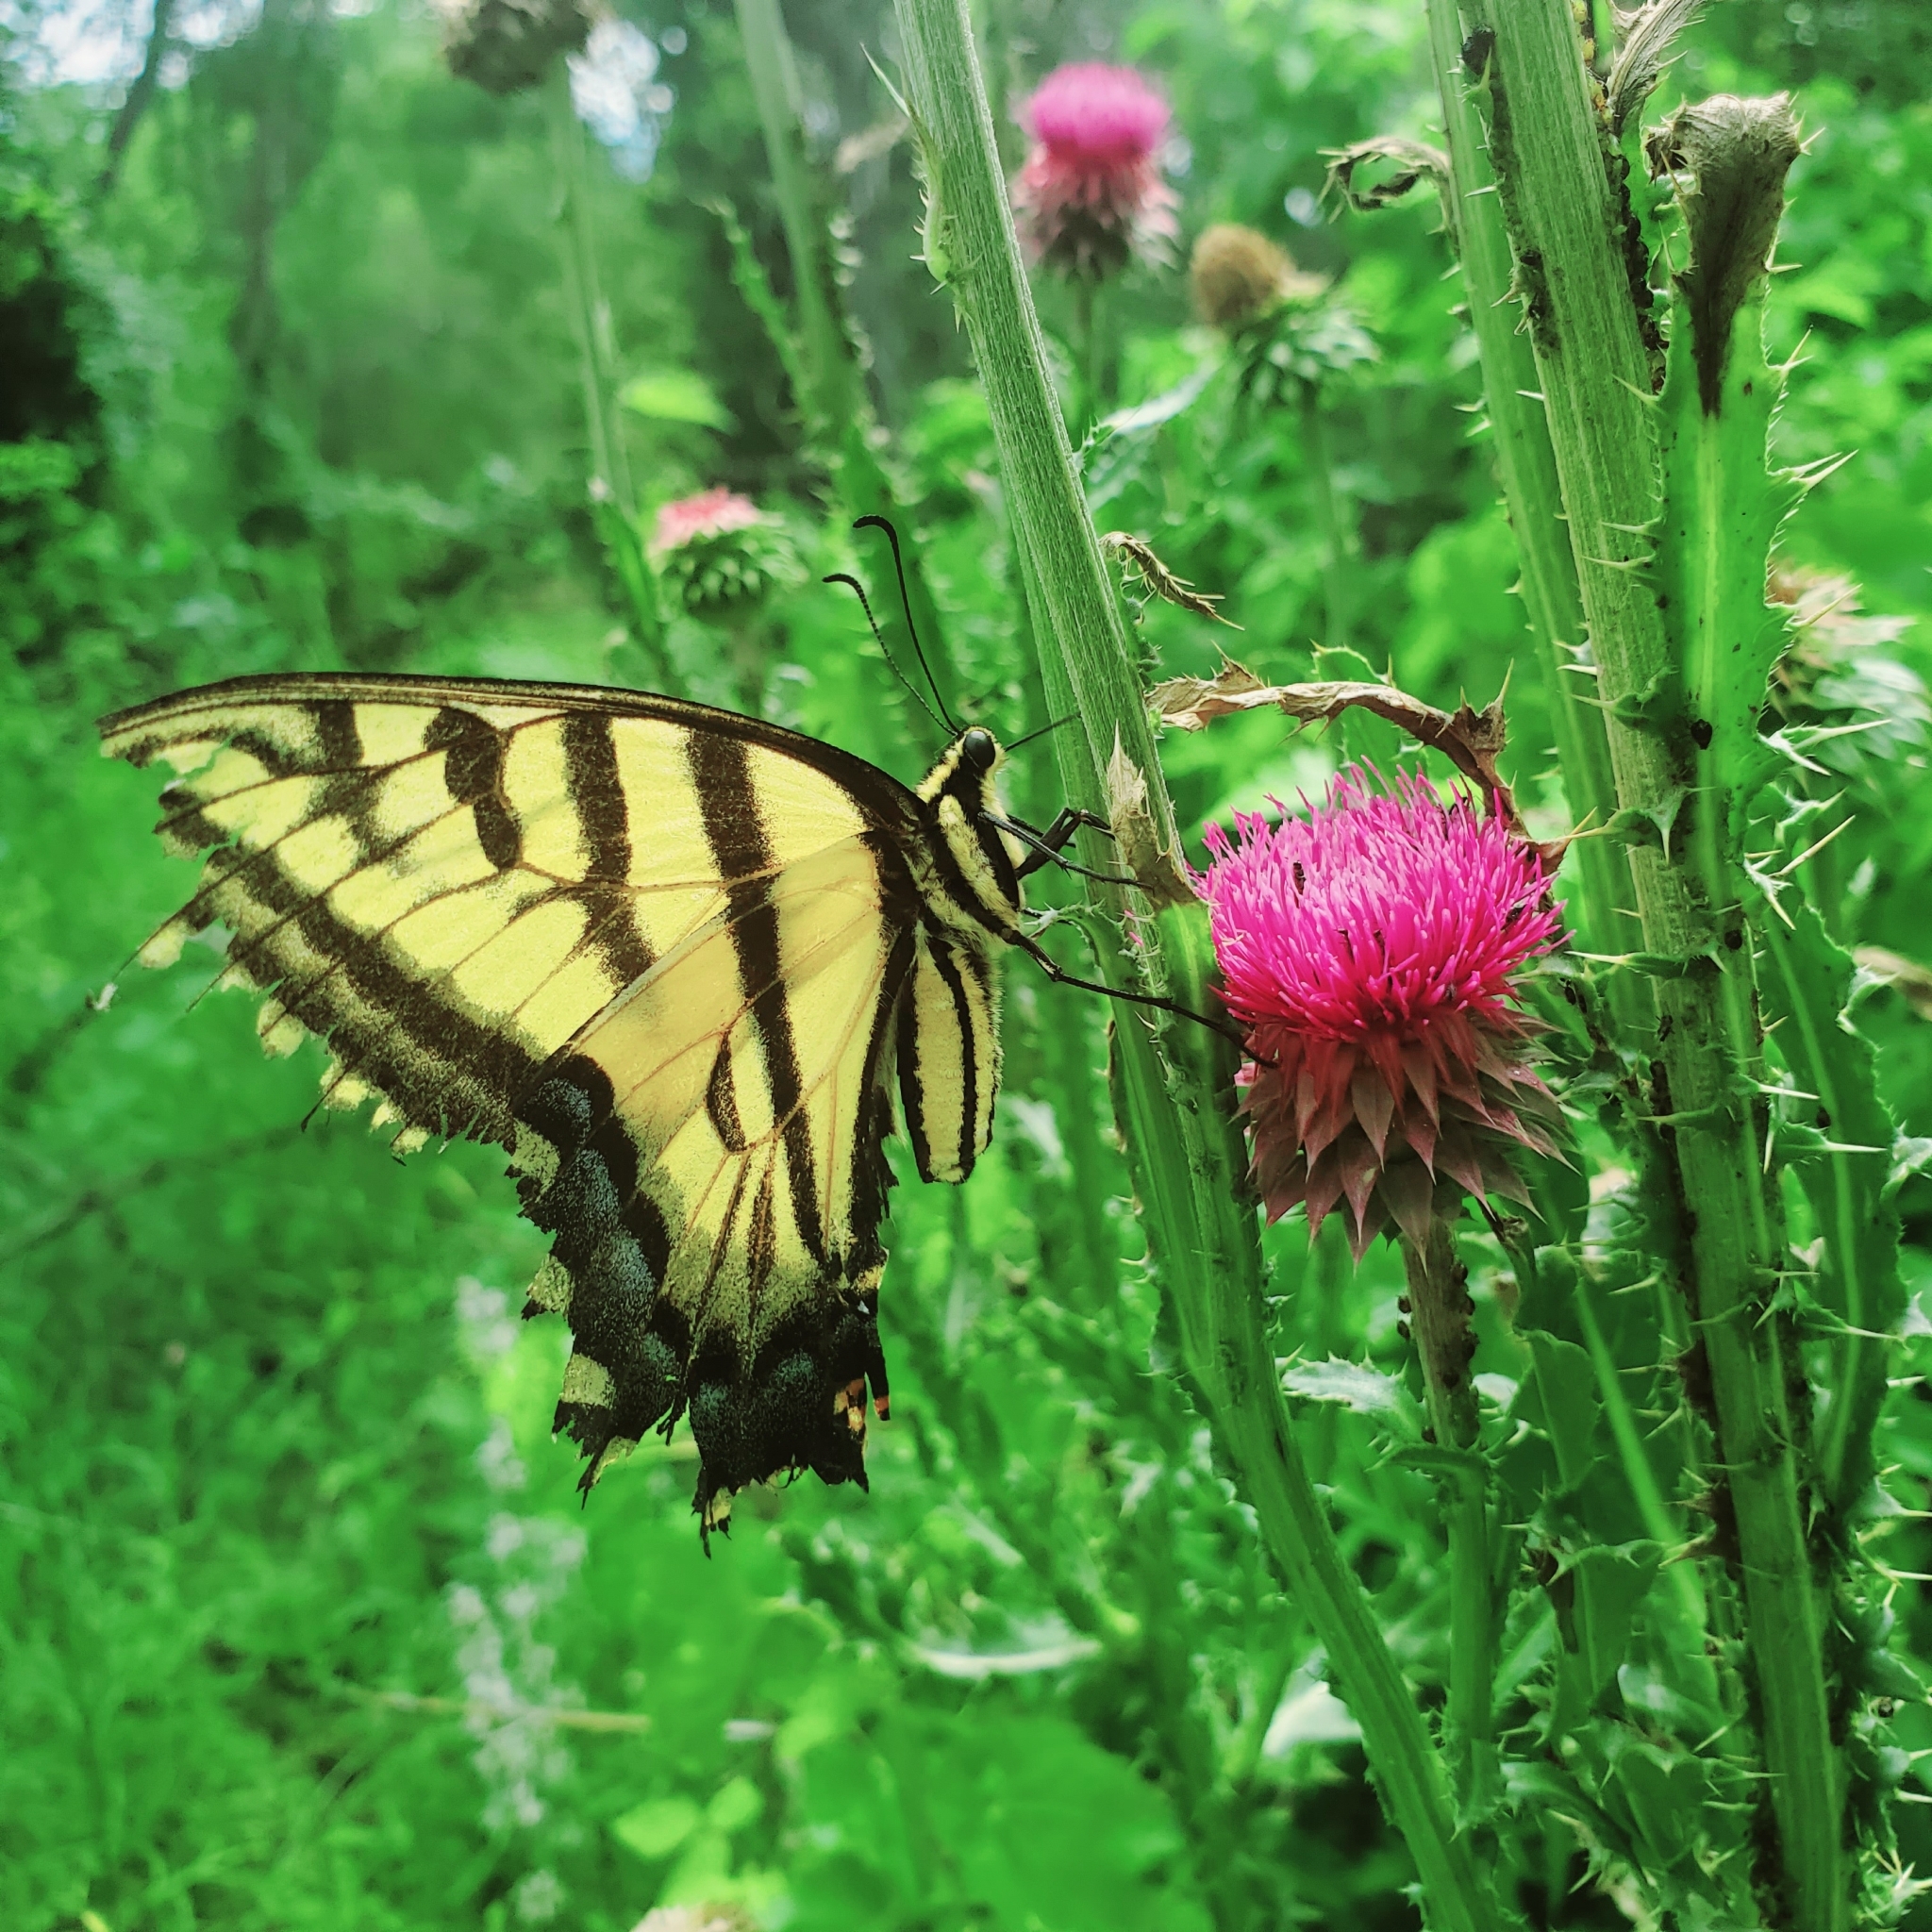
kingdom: Animalia
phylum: Arthropoda
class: Insecta
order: Lepidoptera
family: Papilionidae
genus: Papilio
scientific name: Papilio multicaudata
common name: Two-tailed tiger swallowtail
